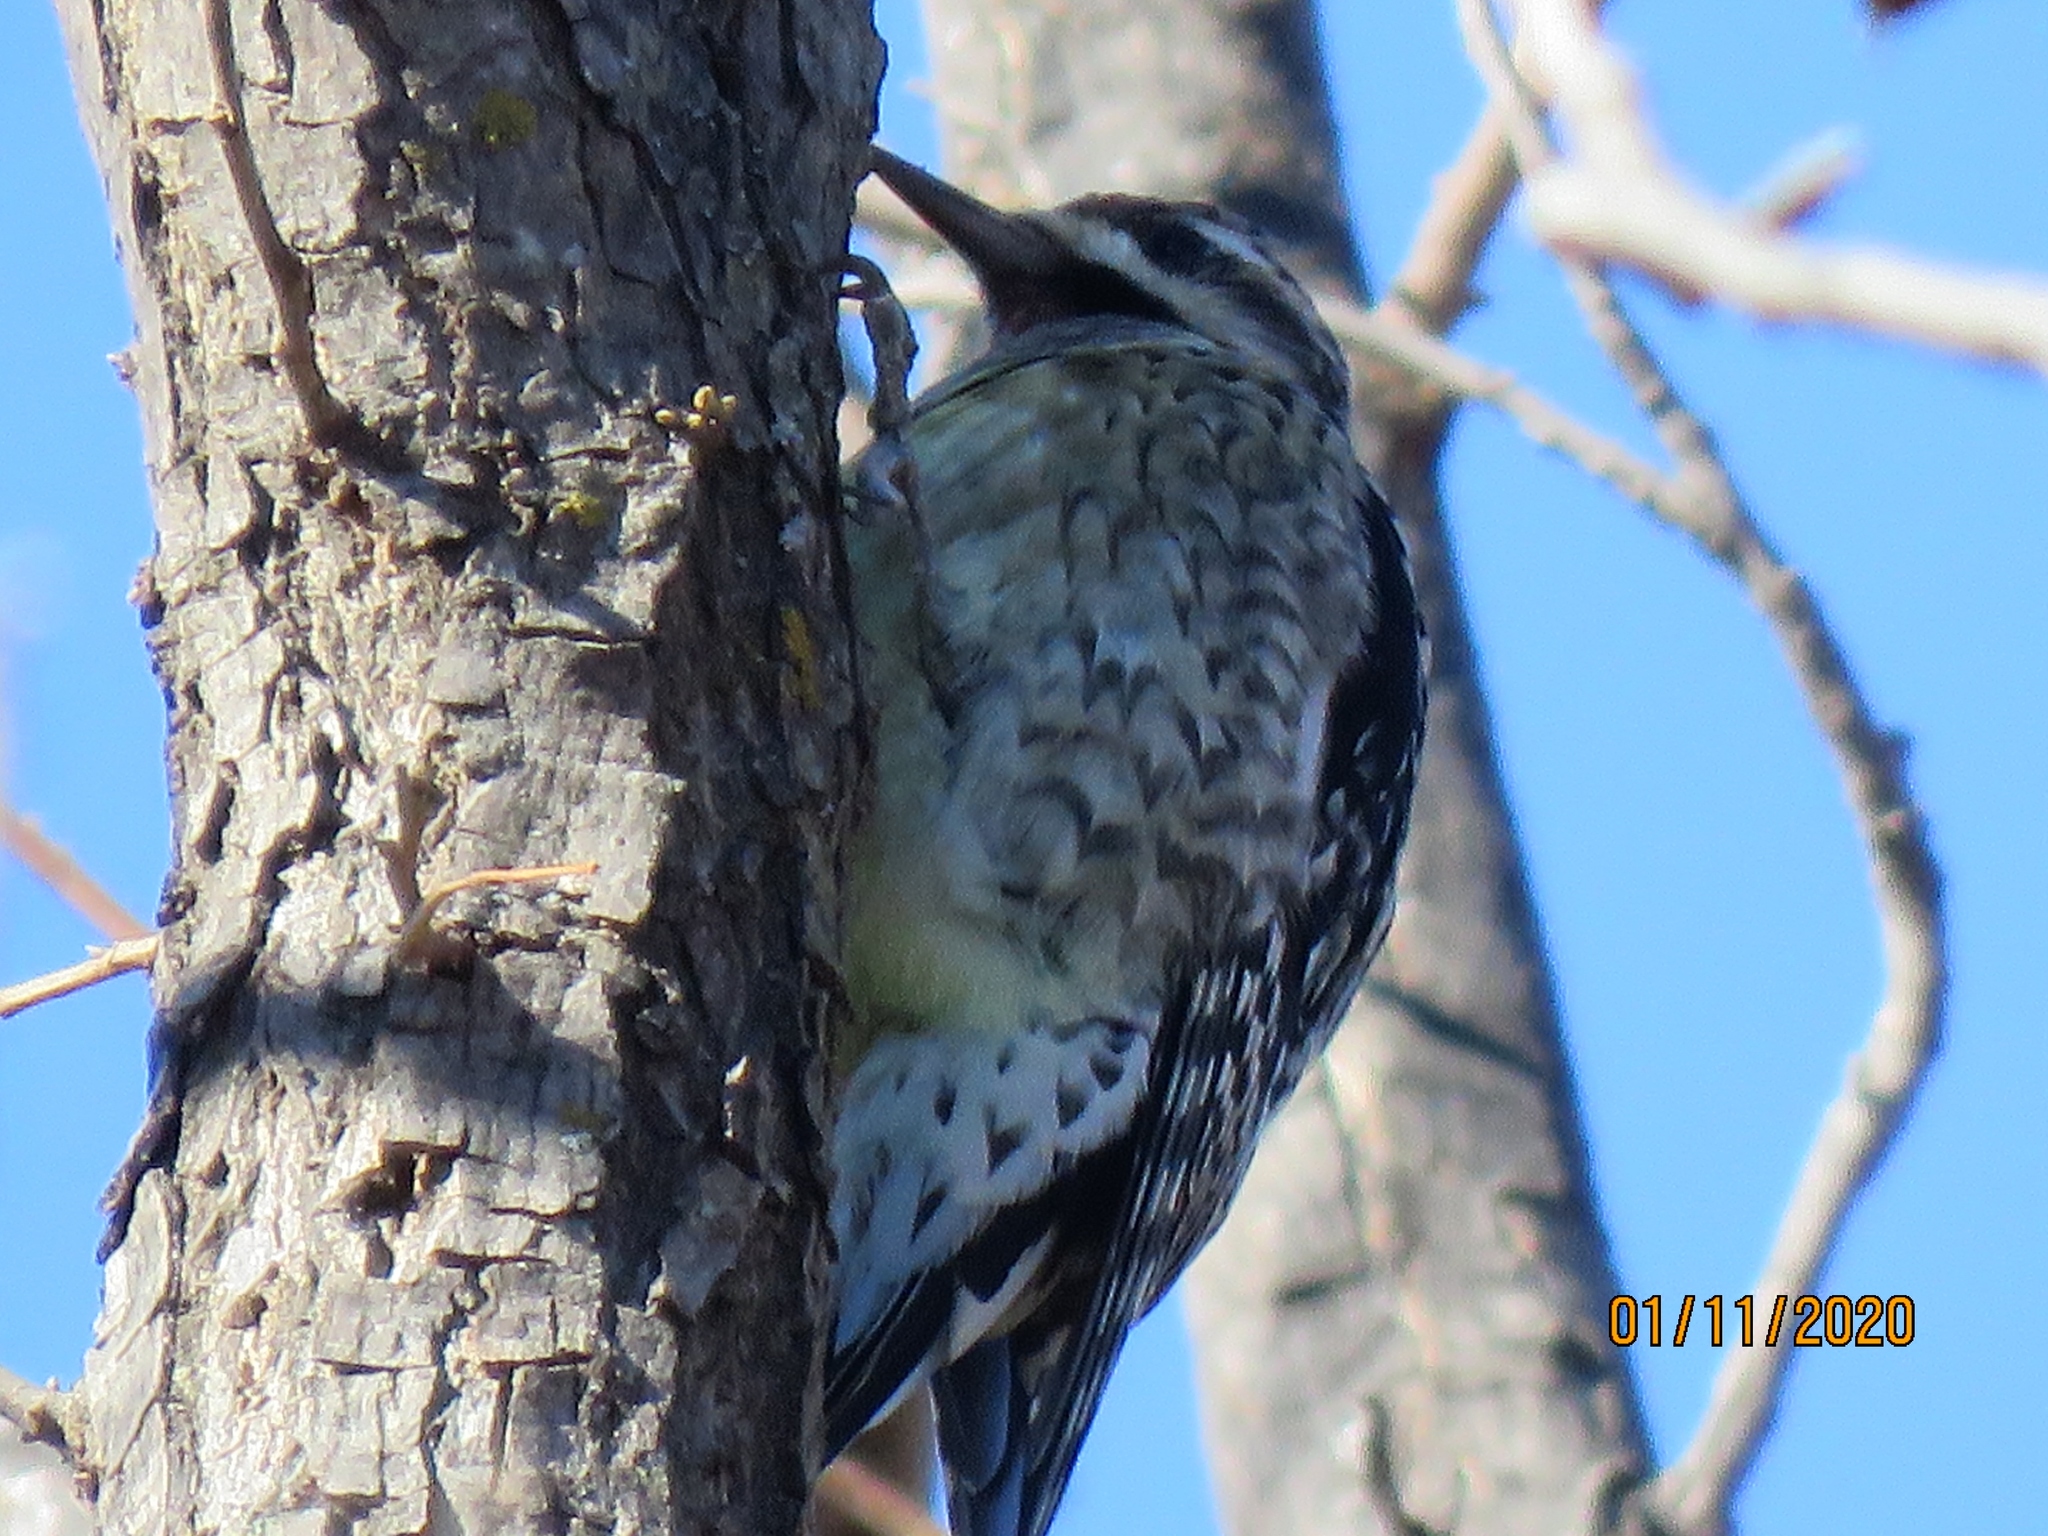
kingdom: Animalia
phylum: Chordata
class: Aves
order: Piciformes
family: Picidae
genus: Sphyrapicus
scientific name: Sphyrapicus varius
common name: Yellow-bellied sapsucker
